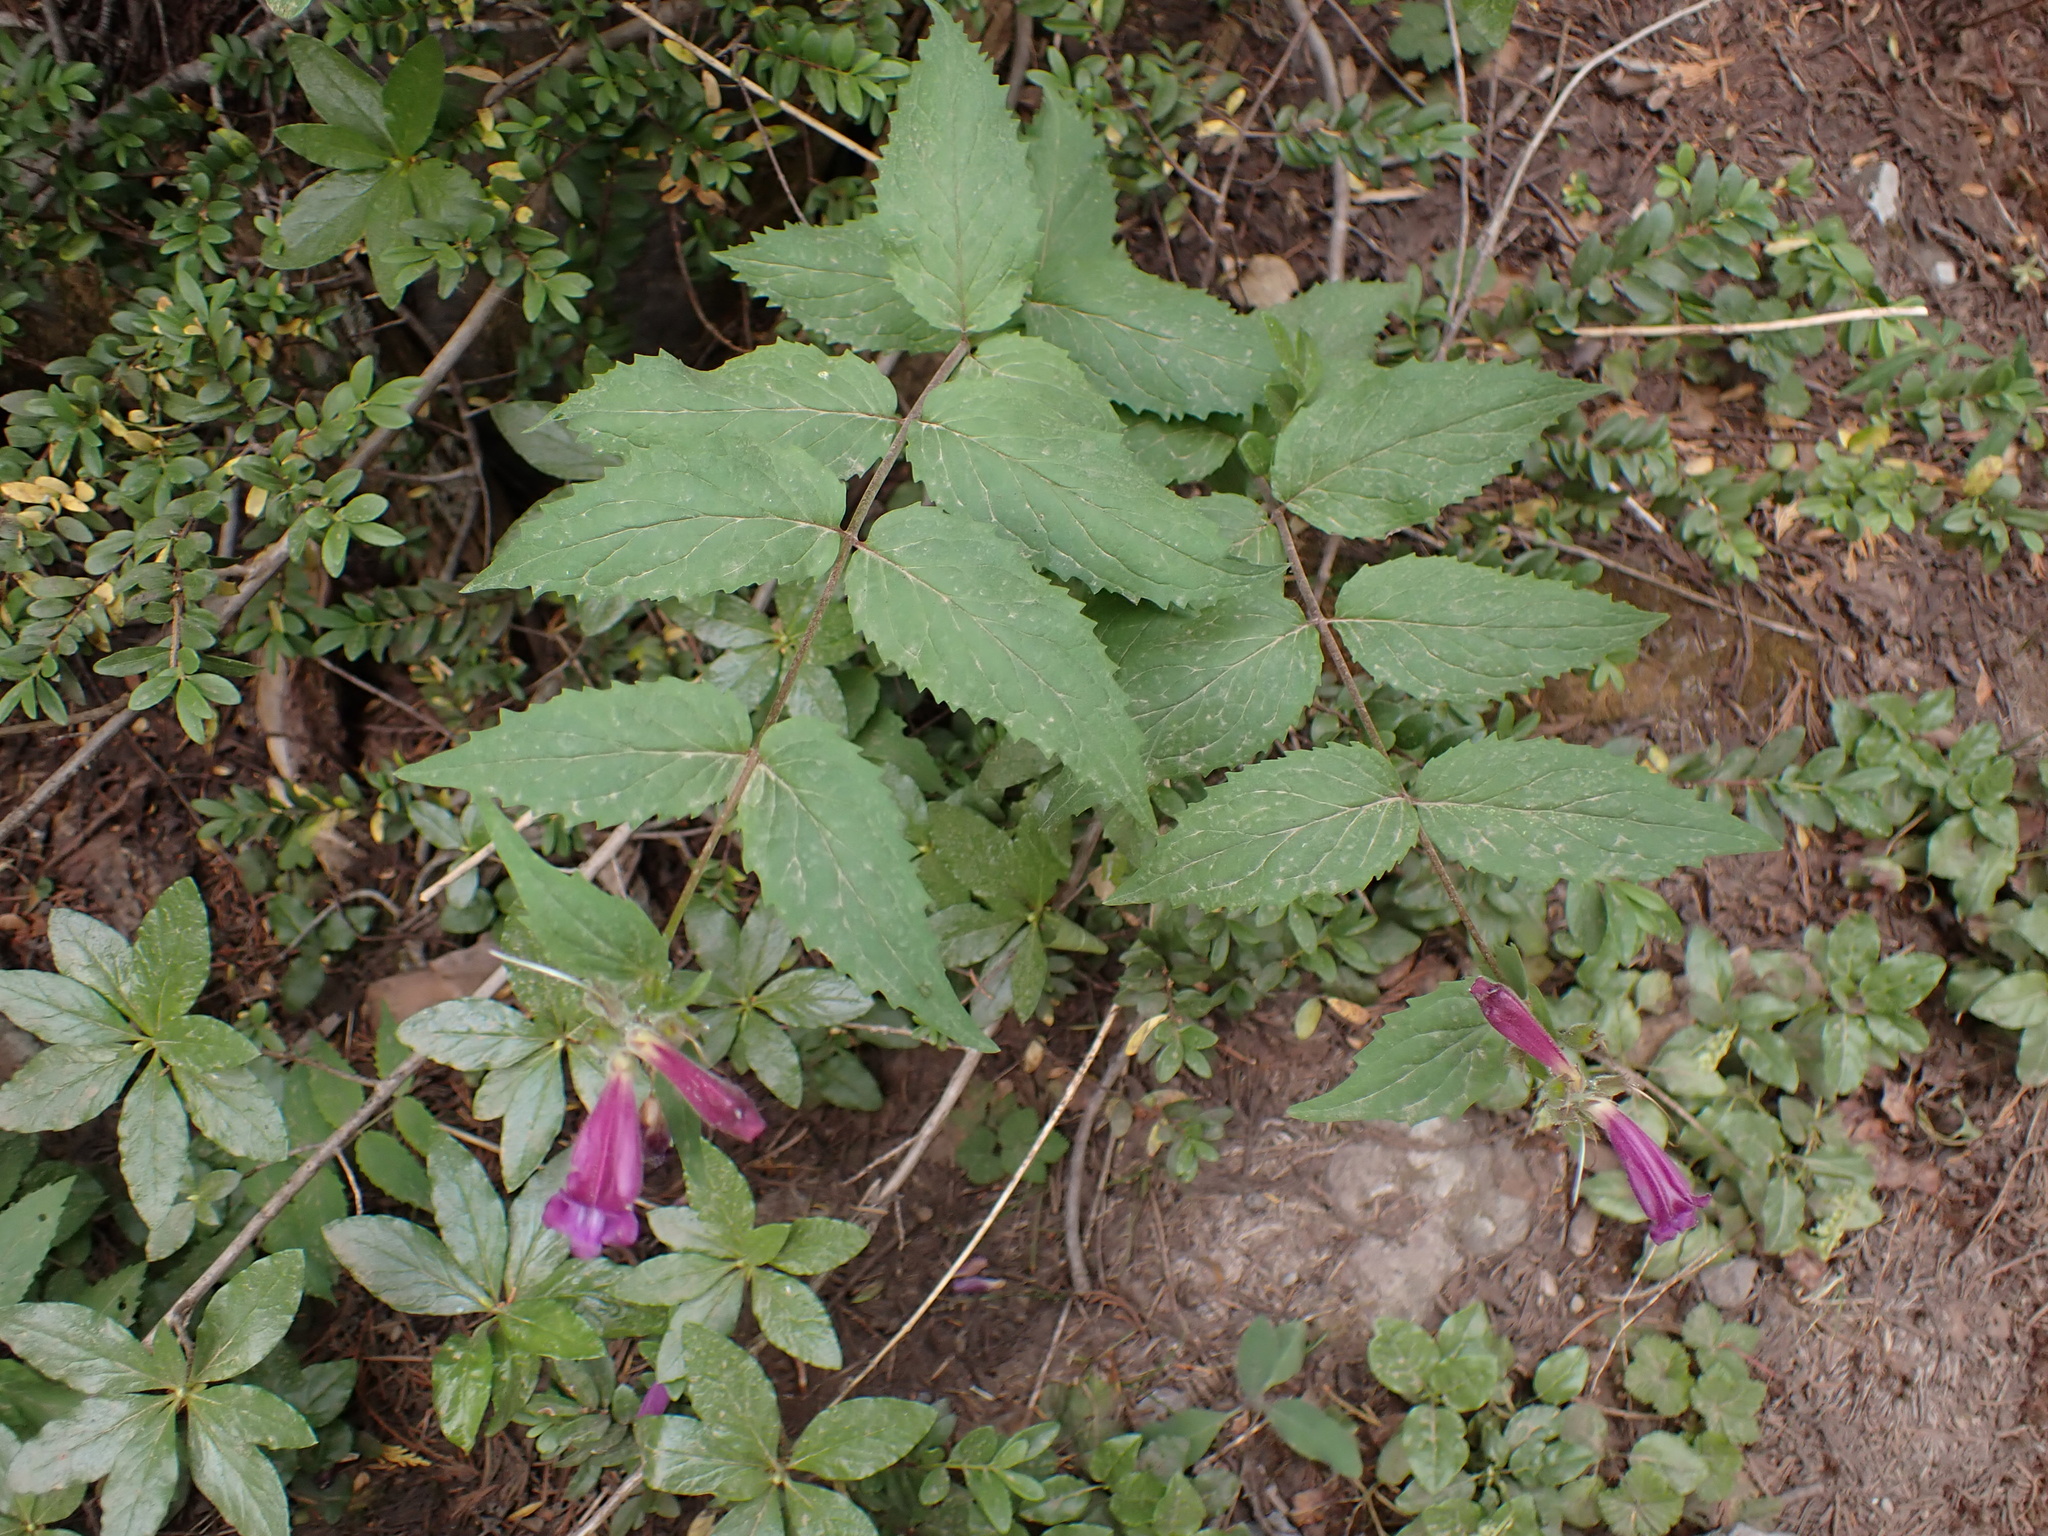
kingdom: Plantae
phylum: Tracheophyta
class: Magnoliopsida
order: Lamiales
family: Plantaginaceae
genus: Nothochelone
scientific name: Nothochelone nemorosa
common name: Woodland beardtongue
